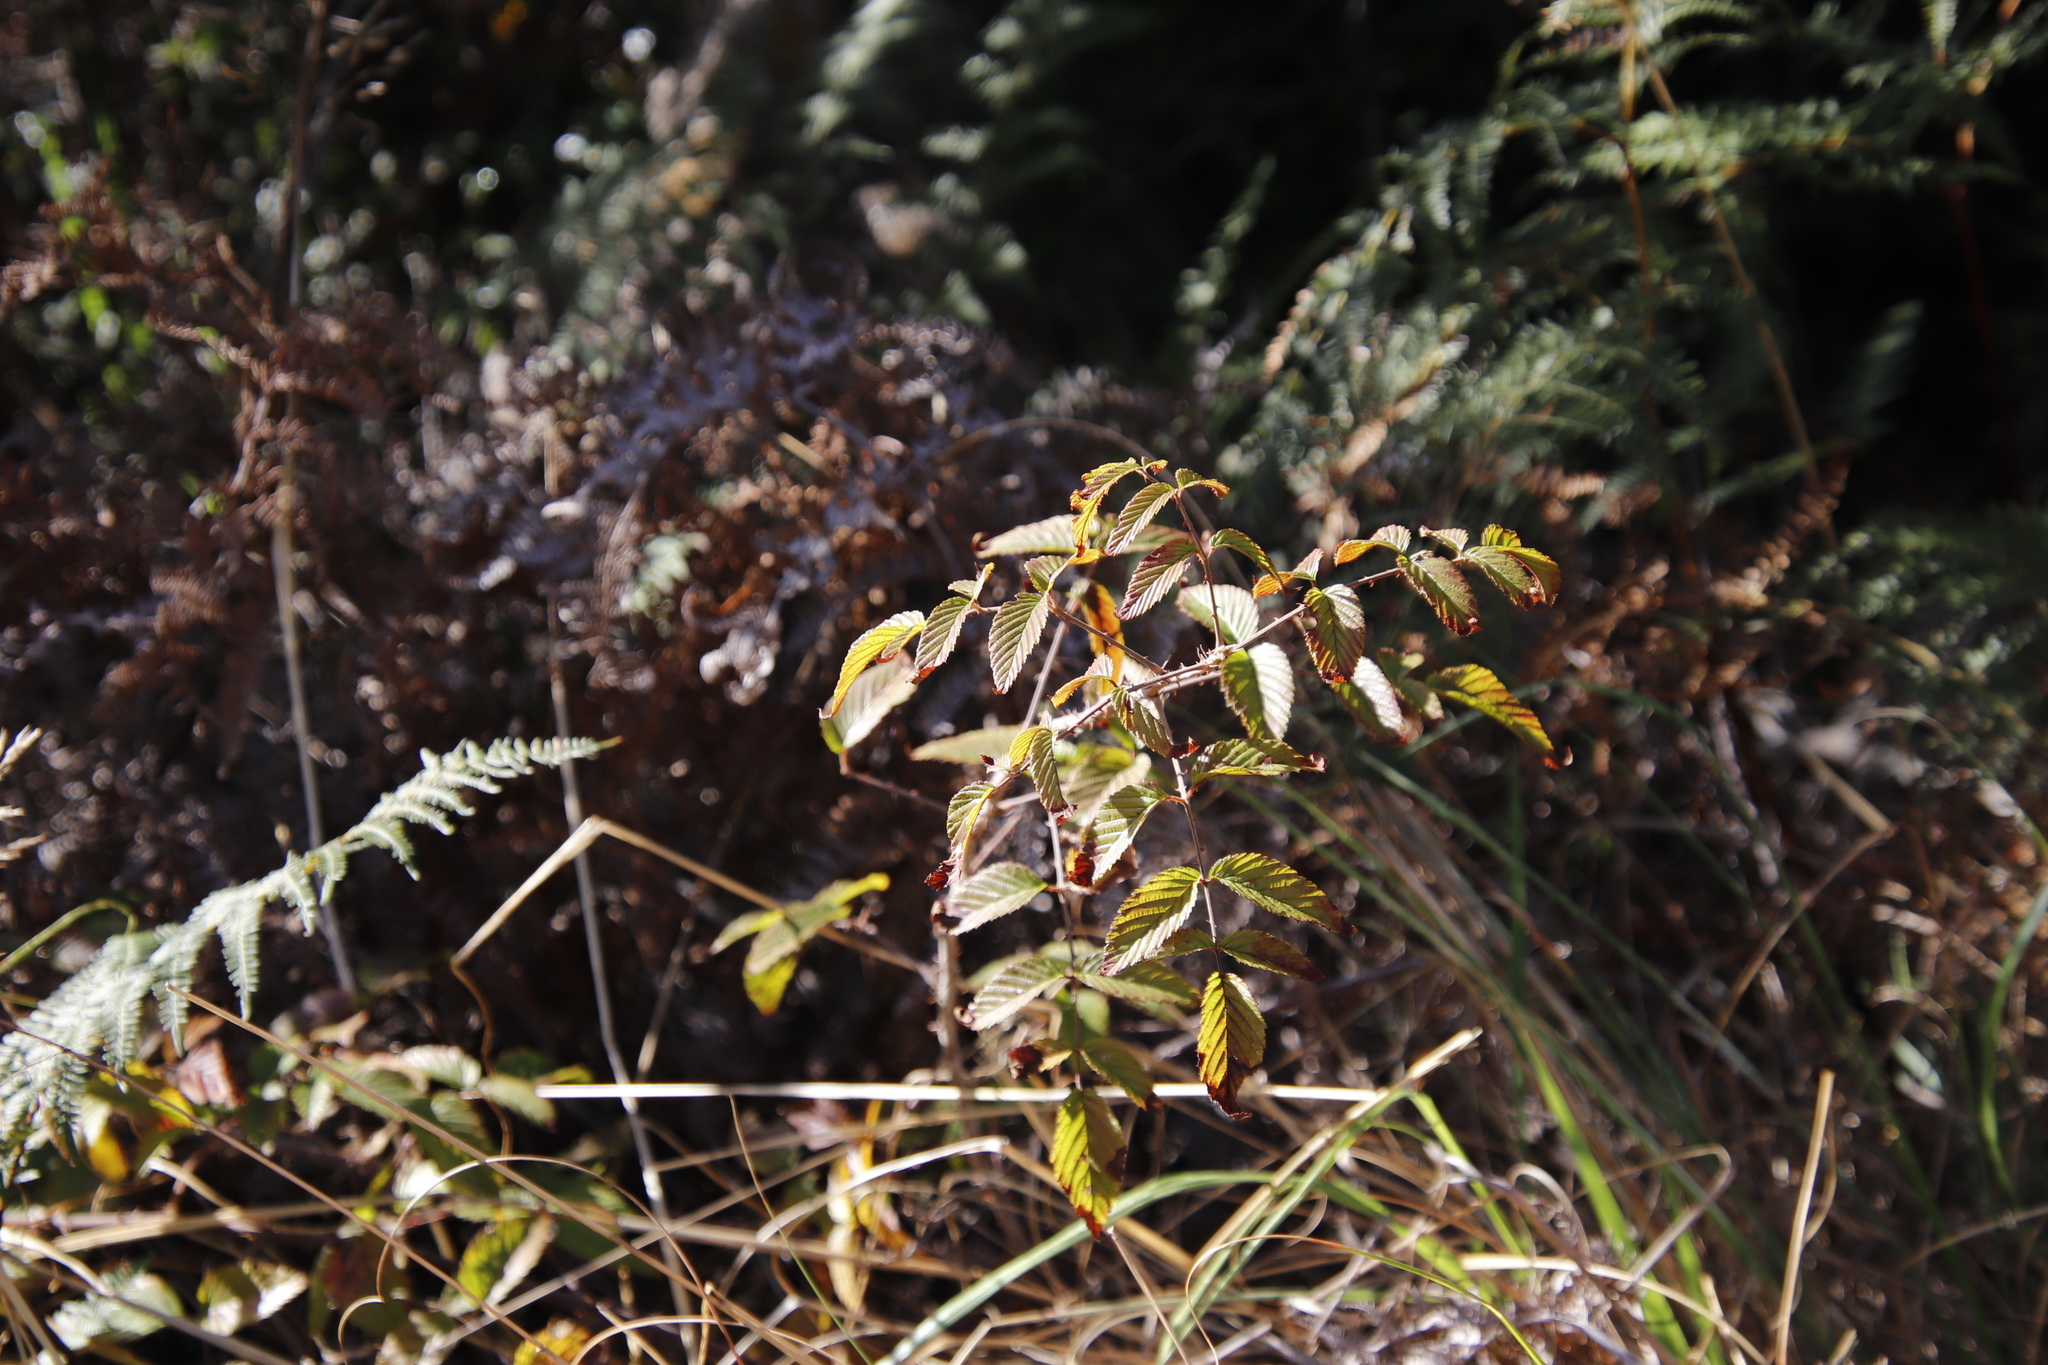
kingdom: Plantae
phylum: Tracheophyta
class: Magnoliopsida
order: Rosales
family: Rosaceae
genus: Rubus
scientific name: Rubus pinnatus
